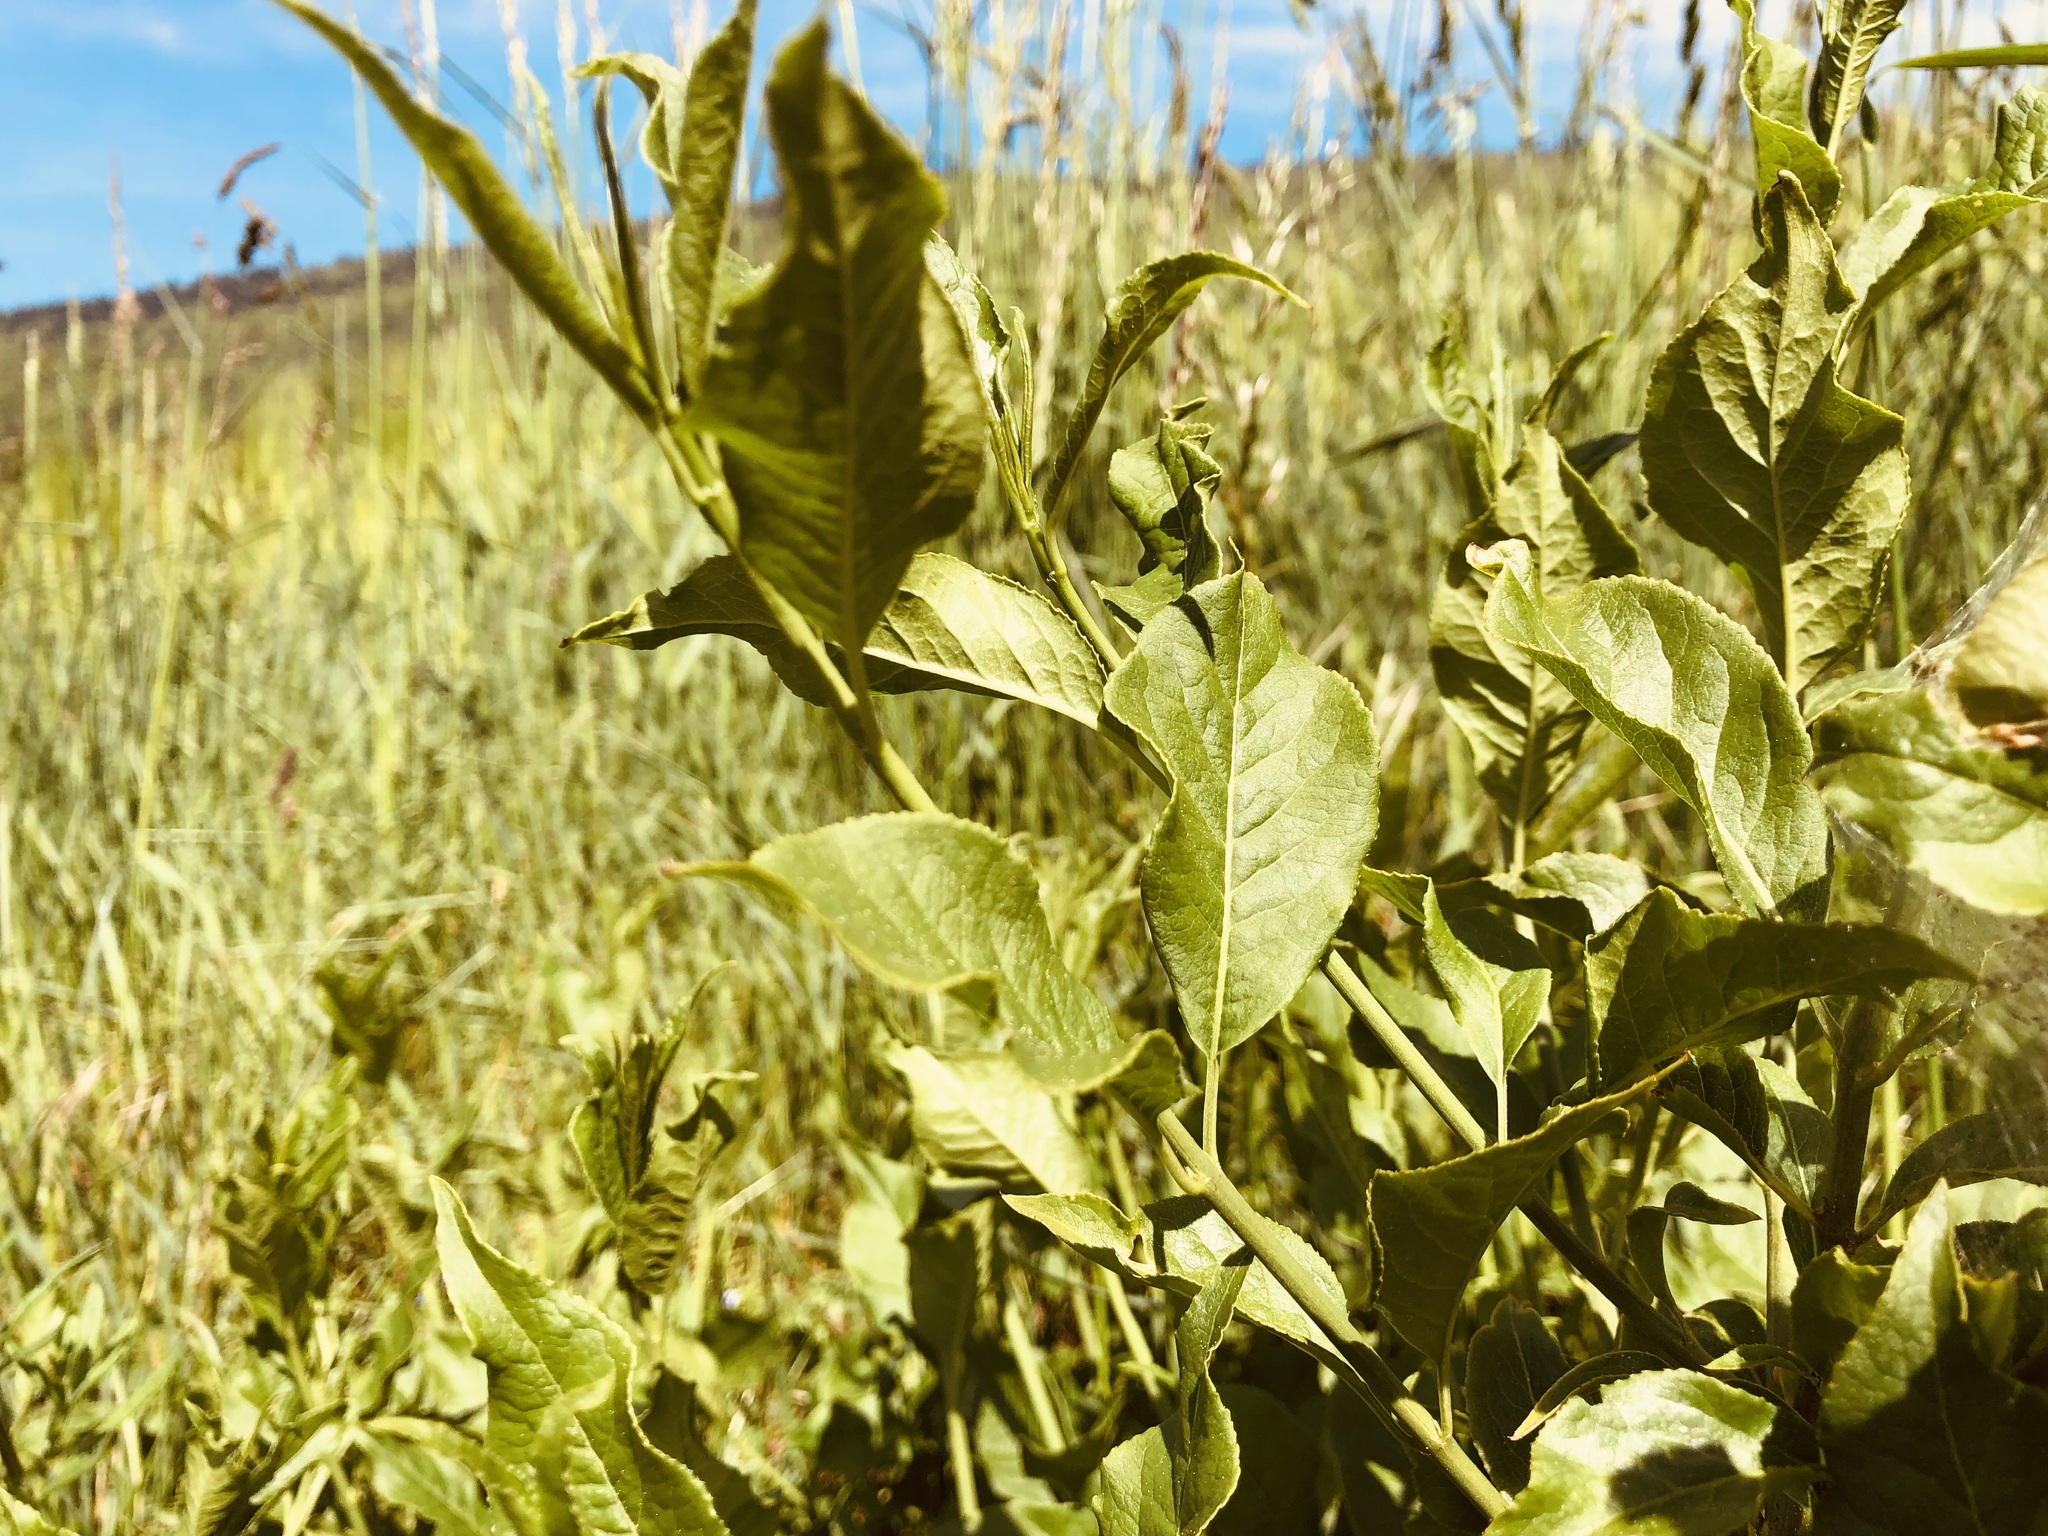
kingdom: Plantae
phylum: Tracheophyta
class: Magnoliopsida
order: Celastrales
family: Celastraceae
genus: Euonymus
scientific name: Euonymus europaeus
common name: Spindle
